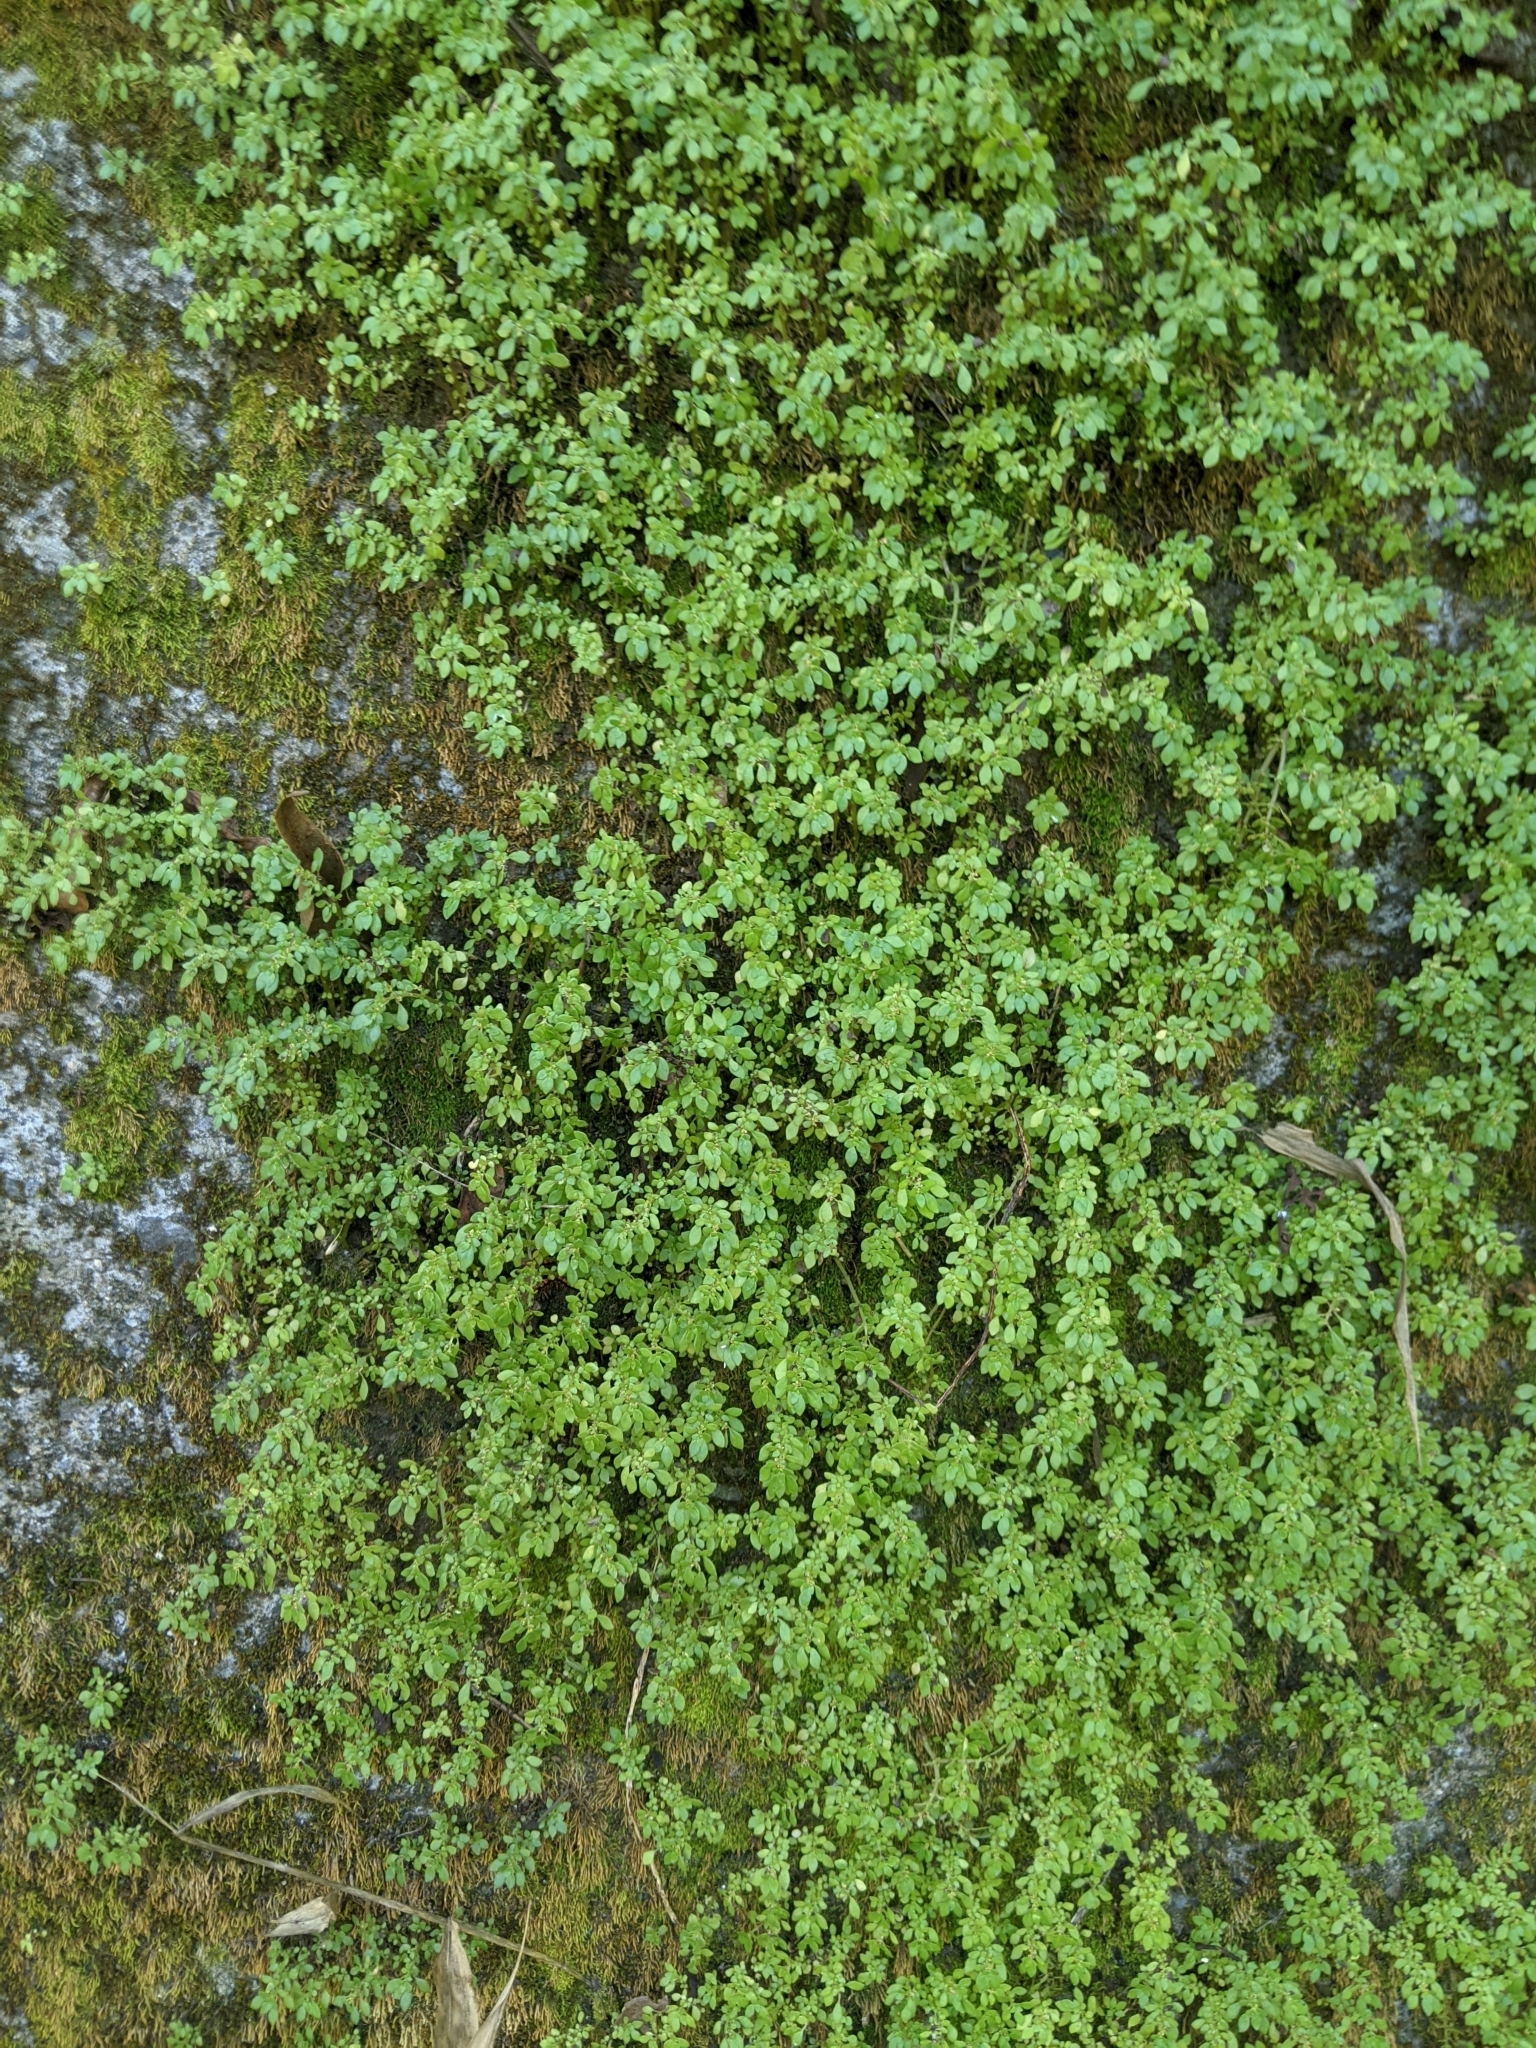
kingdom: Plantae
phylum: Tracheophyta
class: Magnoliopsida
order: Rosales
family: Urticaceae
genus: Pilea
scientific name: Pilea microphylla
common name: Artillery-plant
